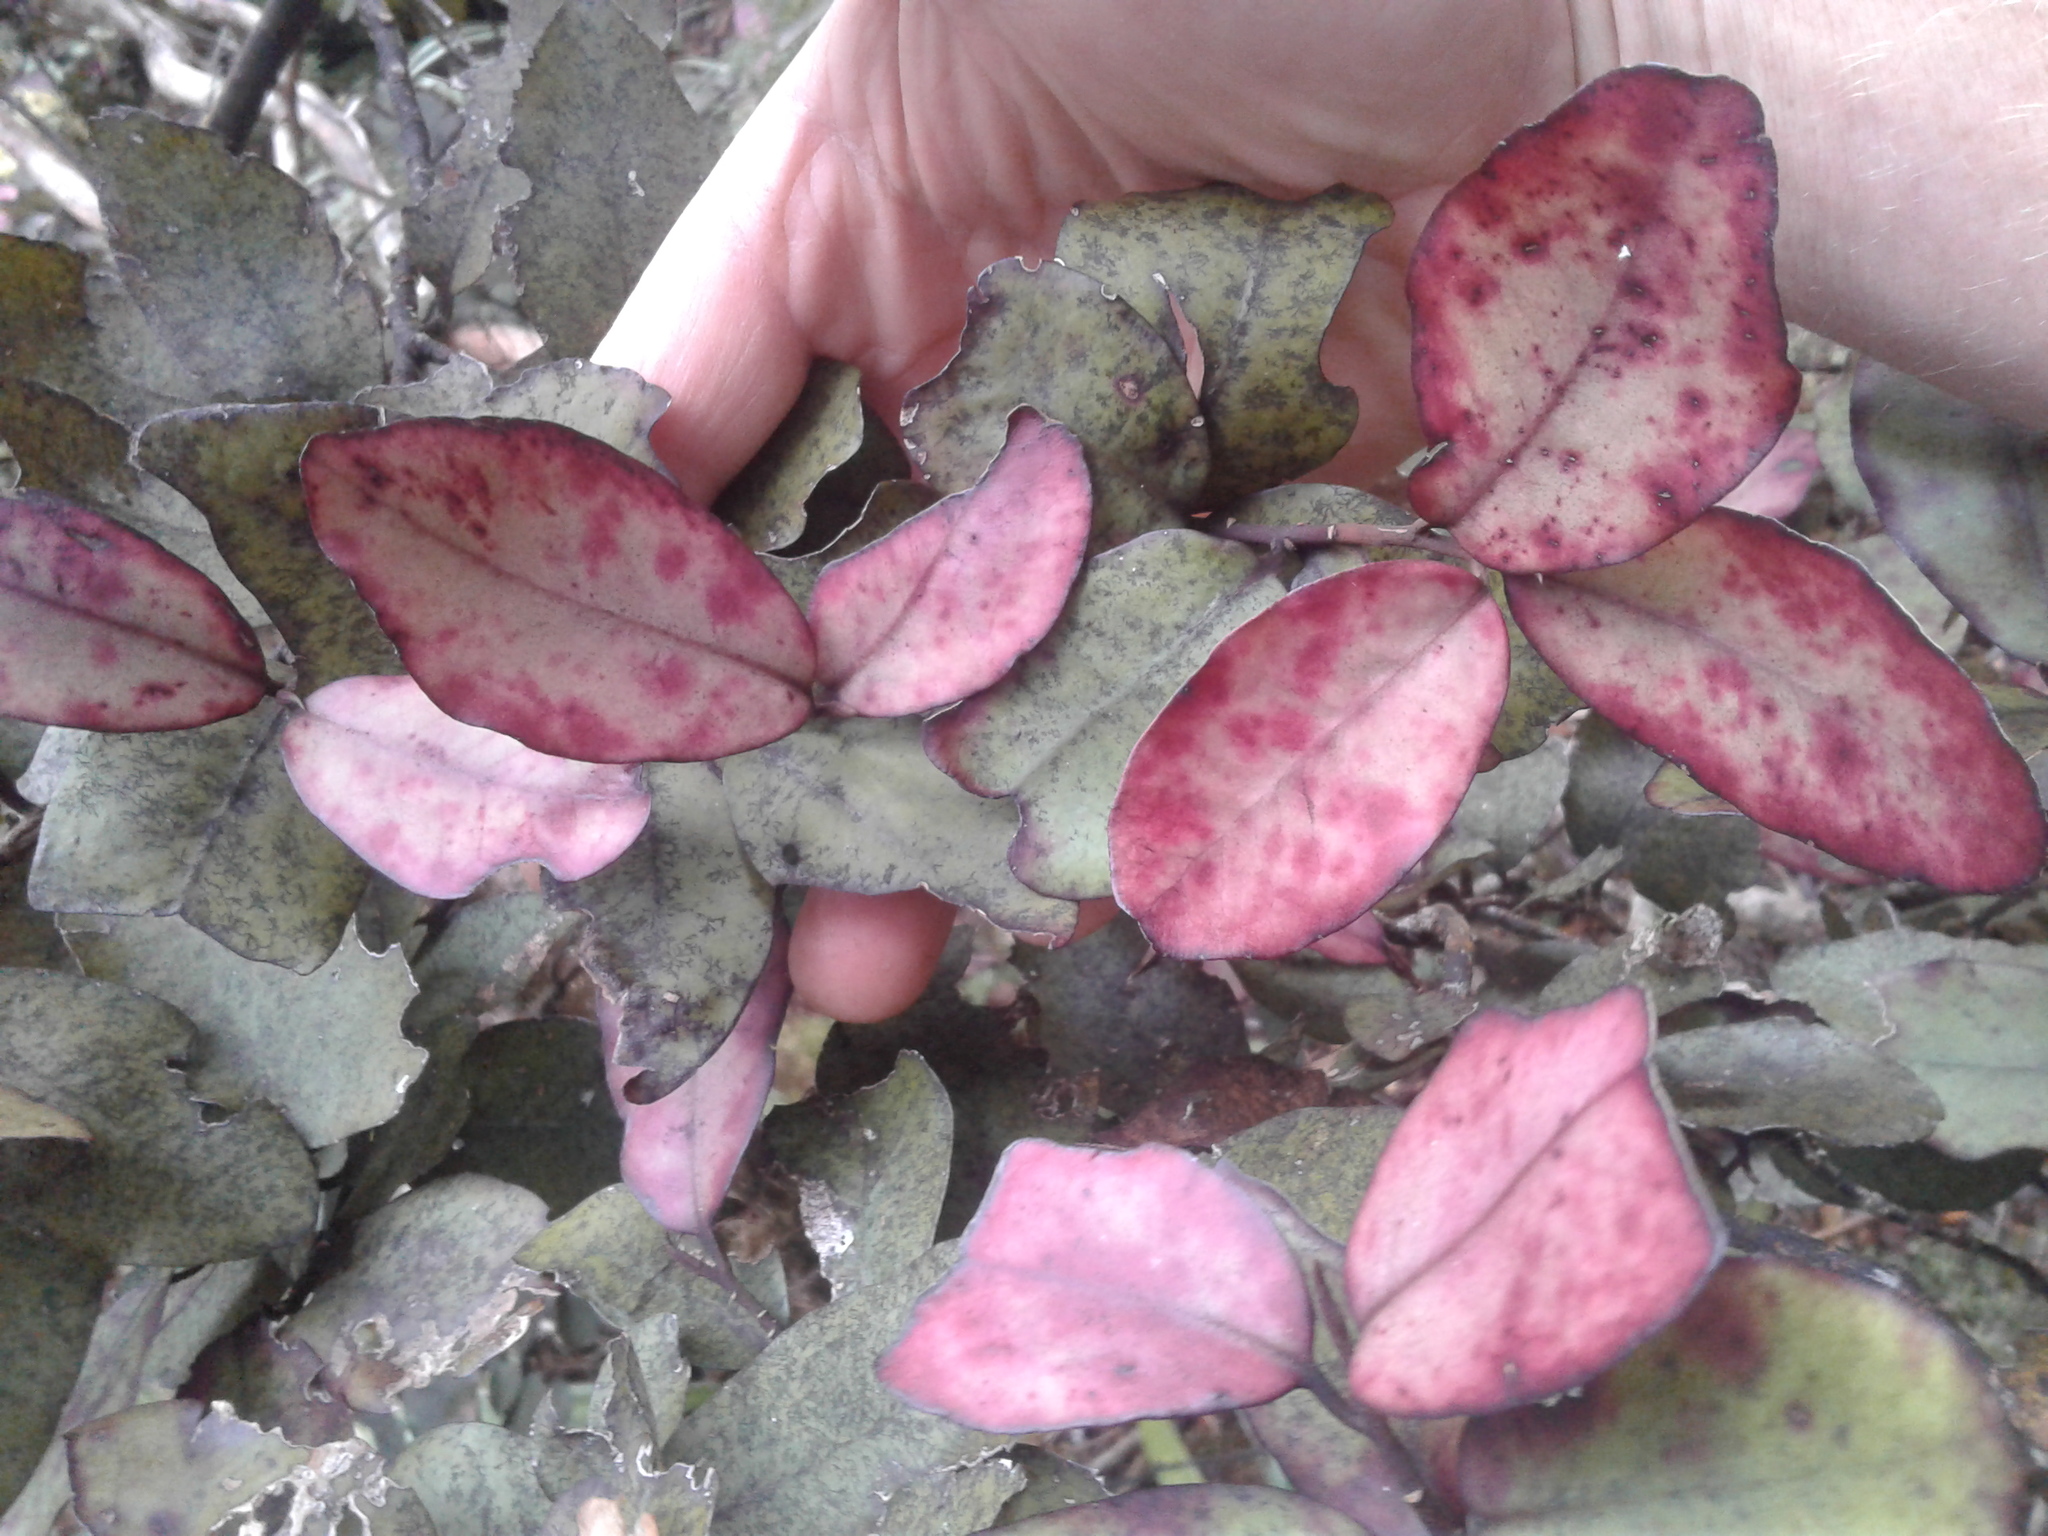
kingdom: Plantae
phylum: Tracheophyta
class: Magnoliopsida
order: Canellales
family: Winteraceae
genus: Pseudowintera
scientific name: Pseudowintera colorata
